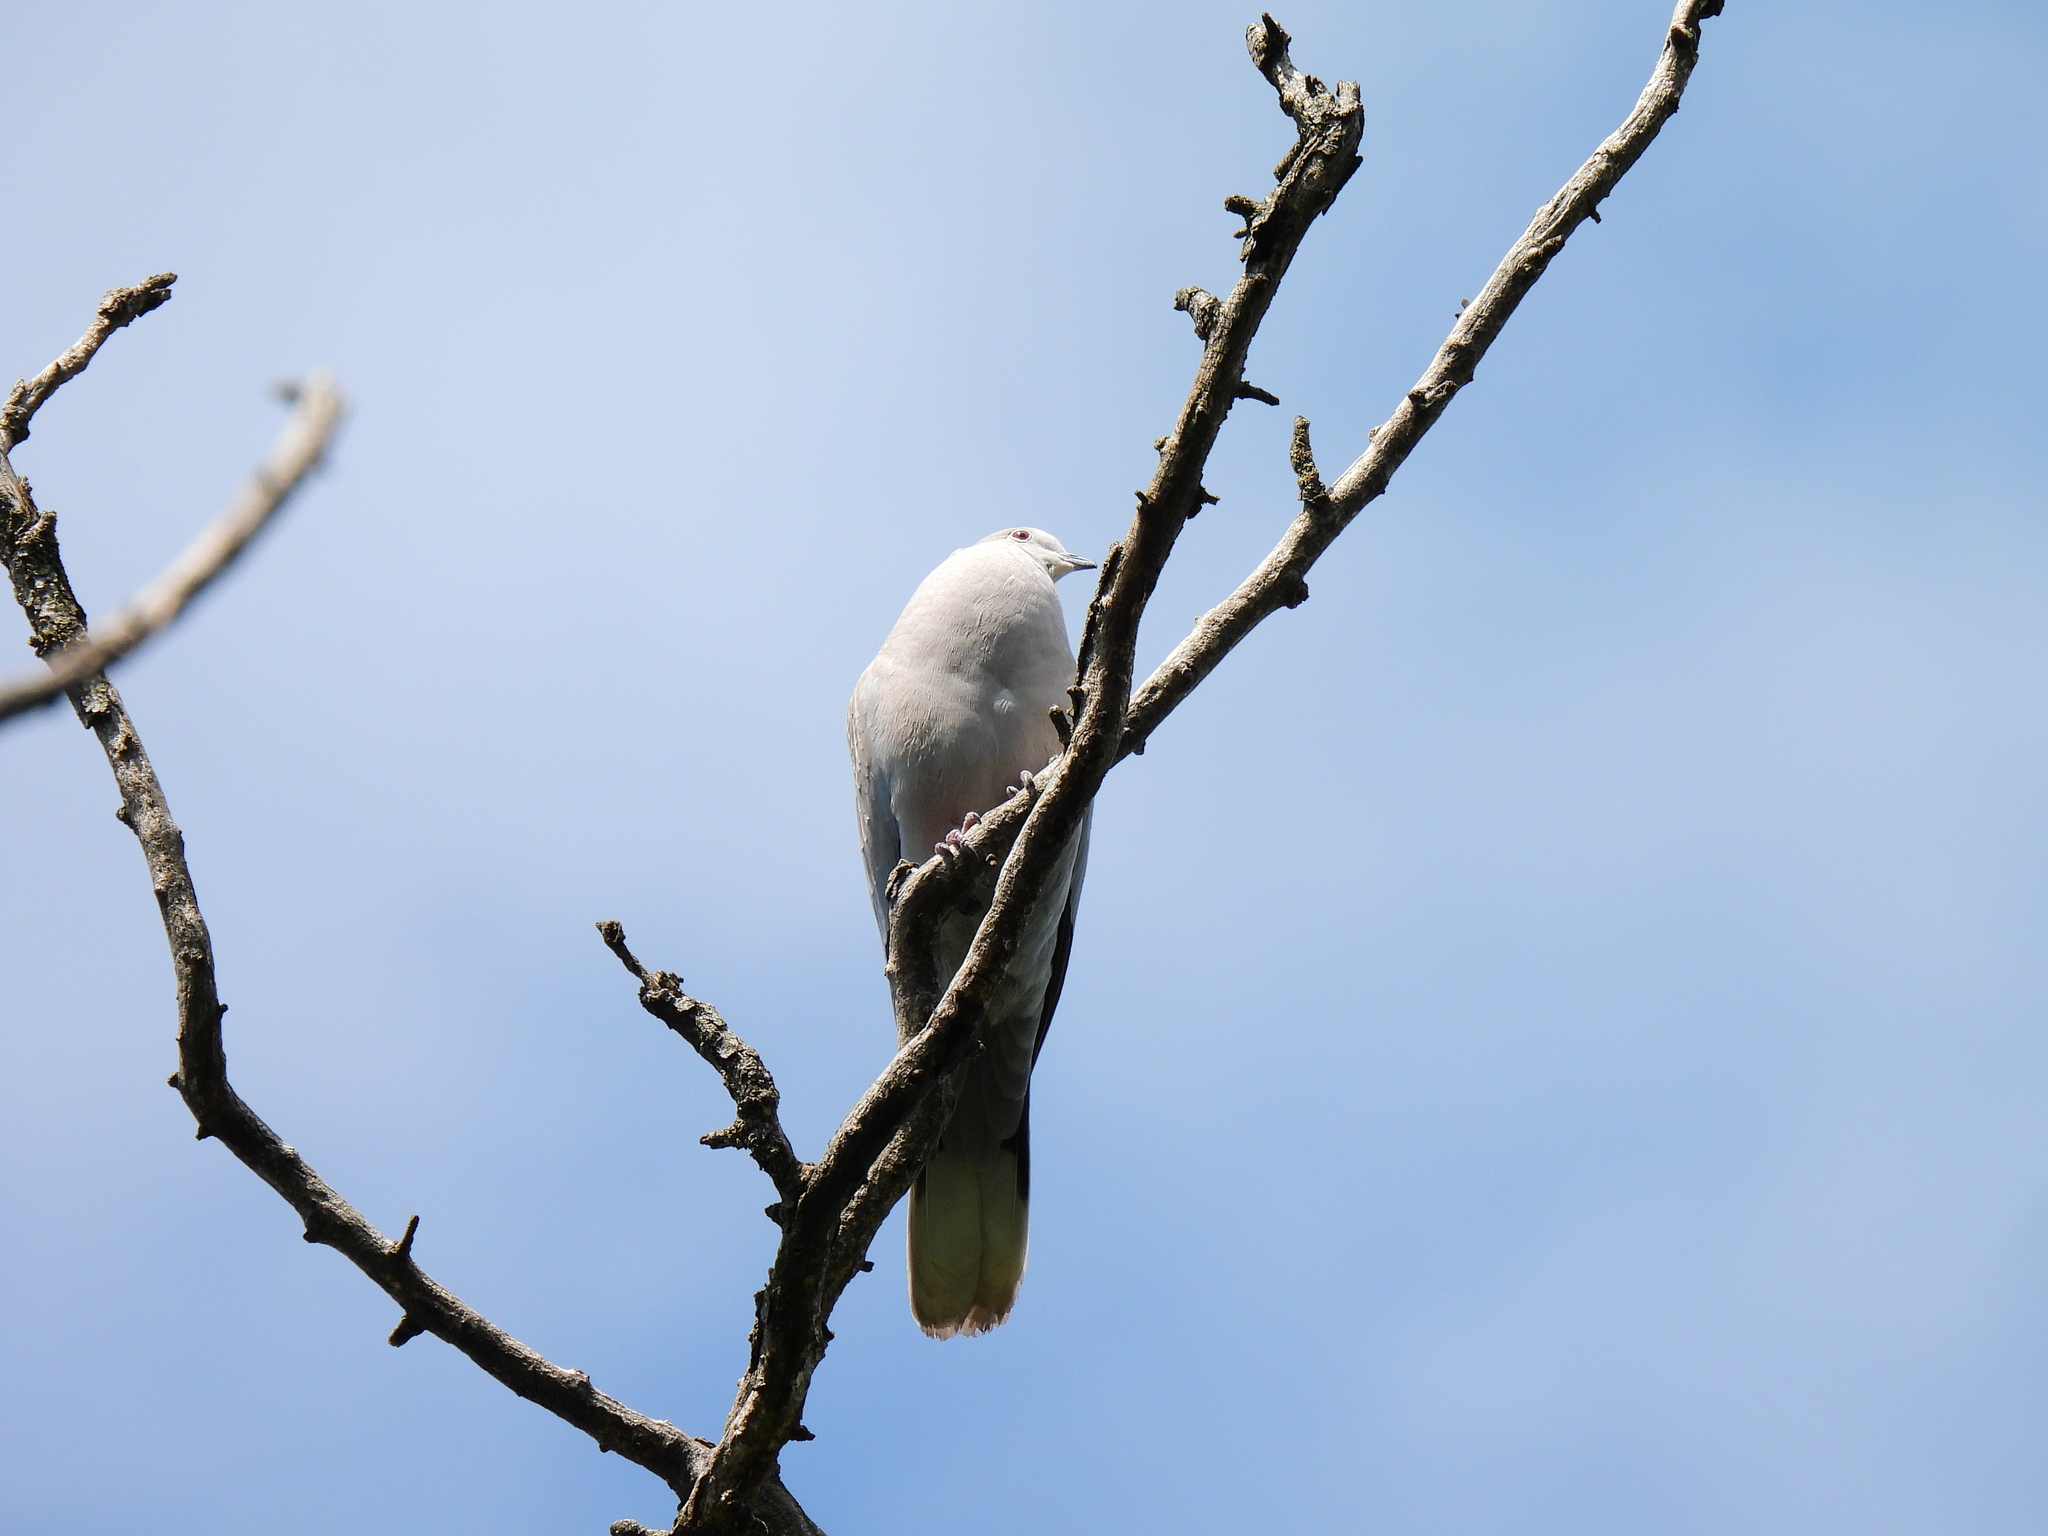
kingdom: Animalia
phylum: Chordata
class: Aves
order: Columbiformes
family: Columbidae
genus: Streptopelia
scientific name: Streptopelia decaocto
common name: Eurasian collared dove
